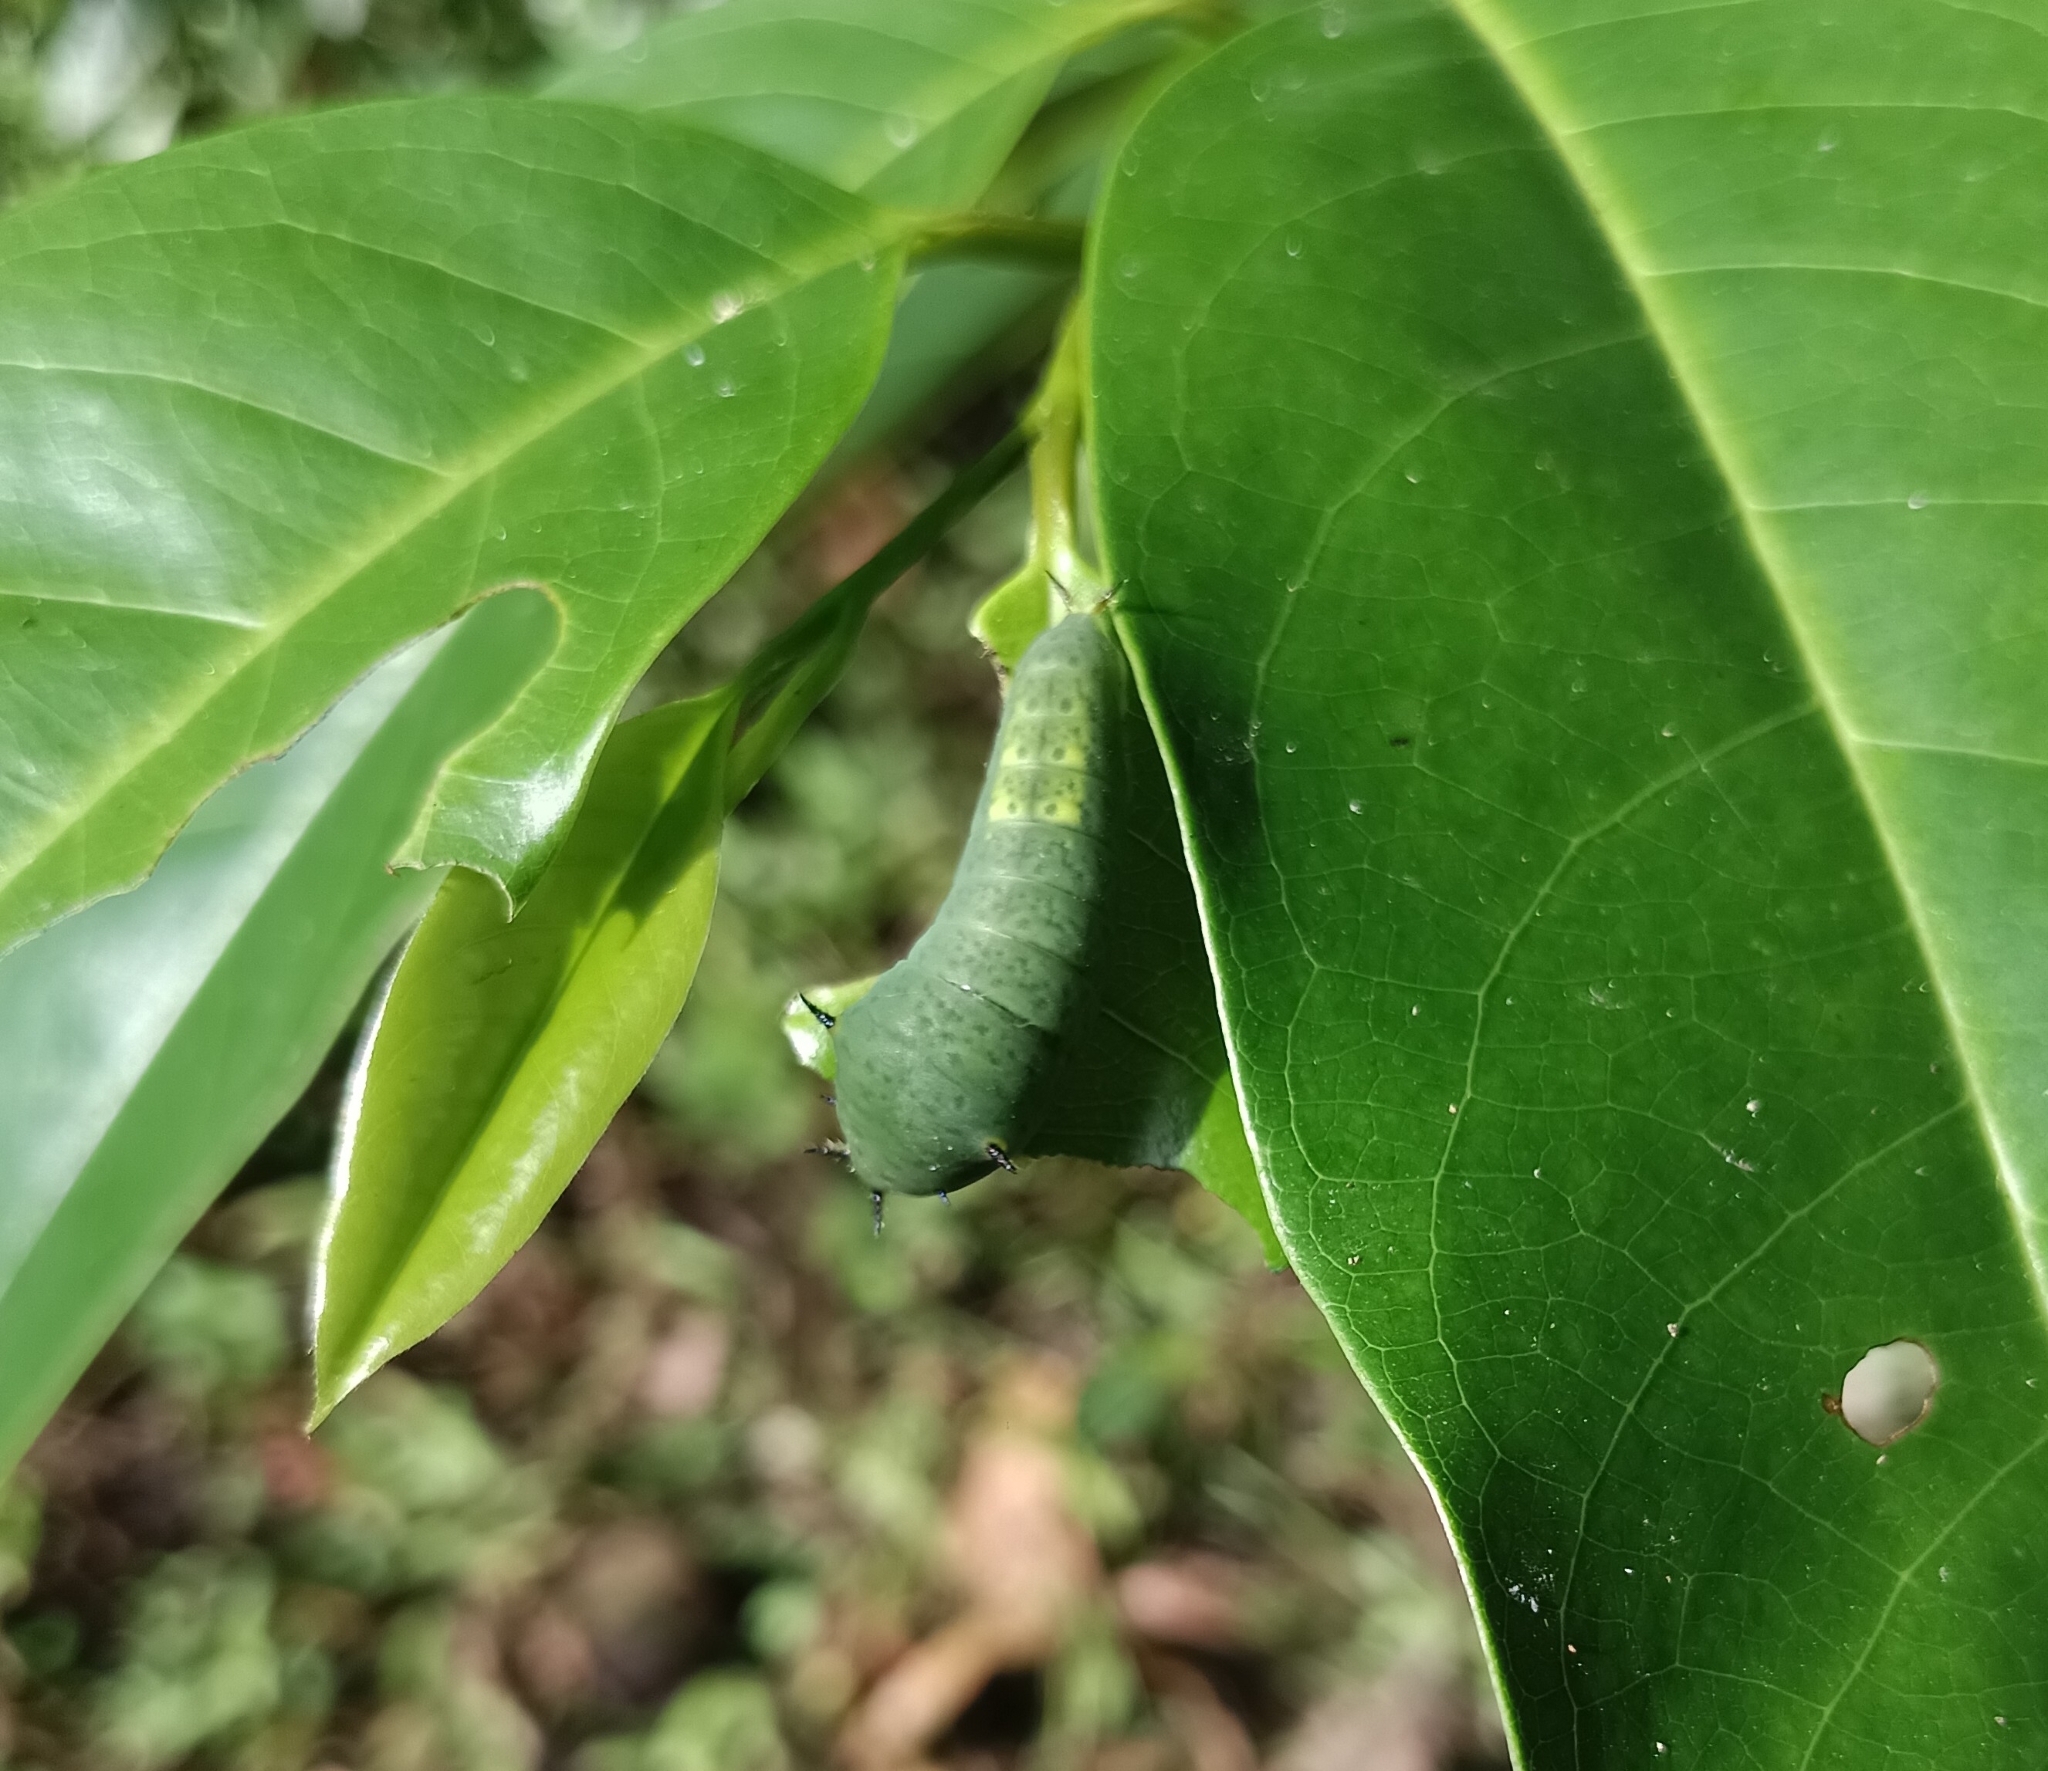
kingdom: Animalia
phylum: Arthropoda
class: Insecta
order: Lepidoptera
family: Papilionidae
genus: Graphium
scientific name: Graphium agamemnon
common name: Tailed jay
